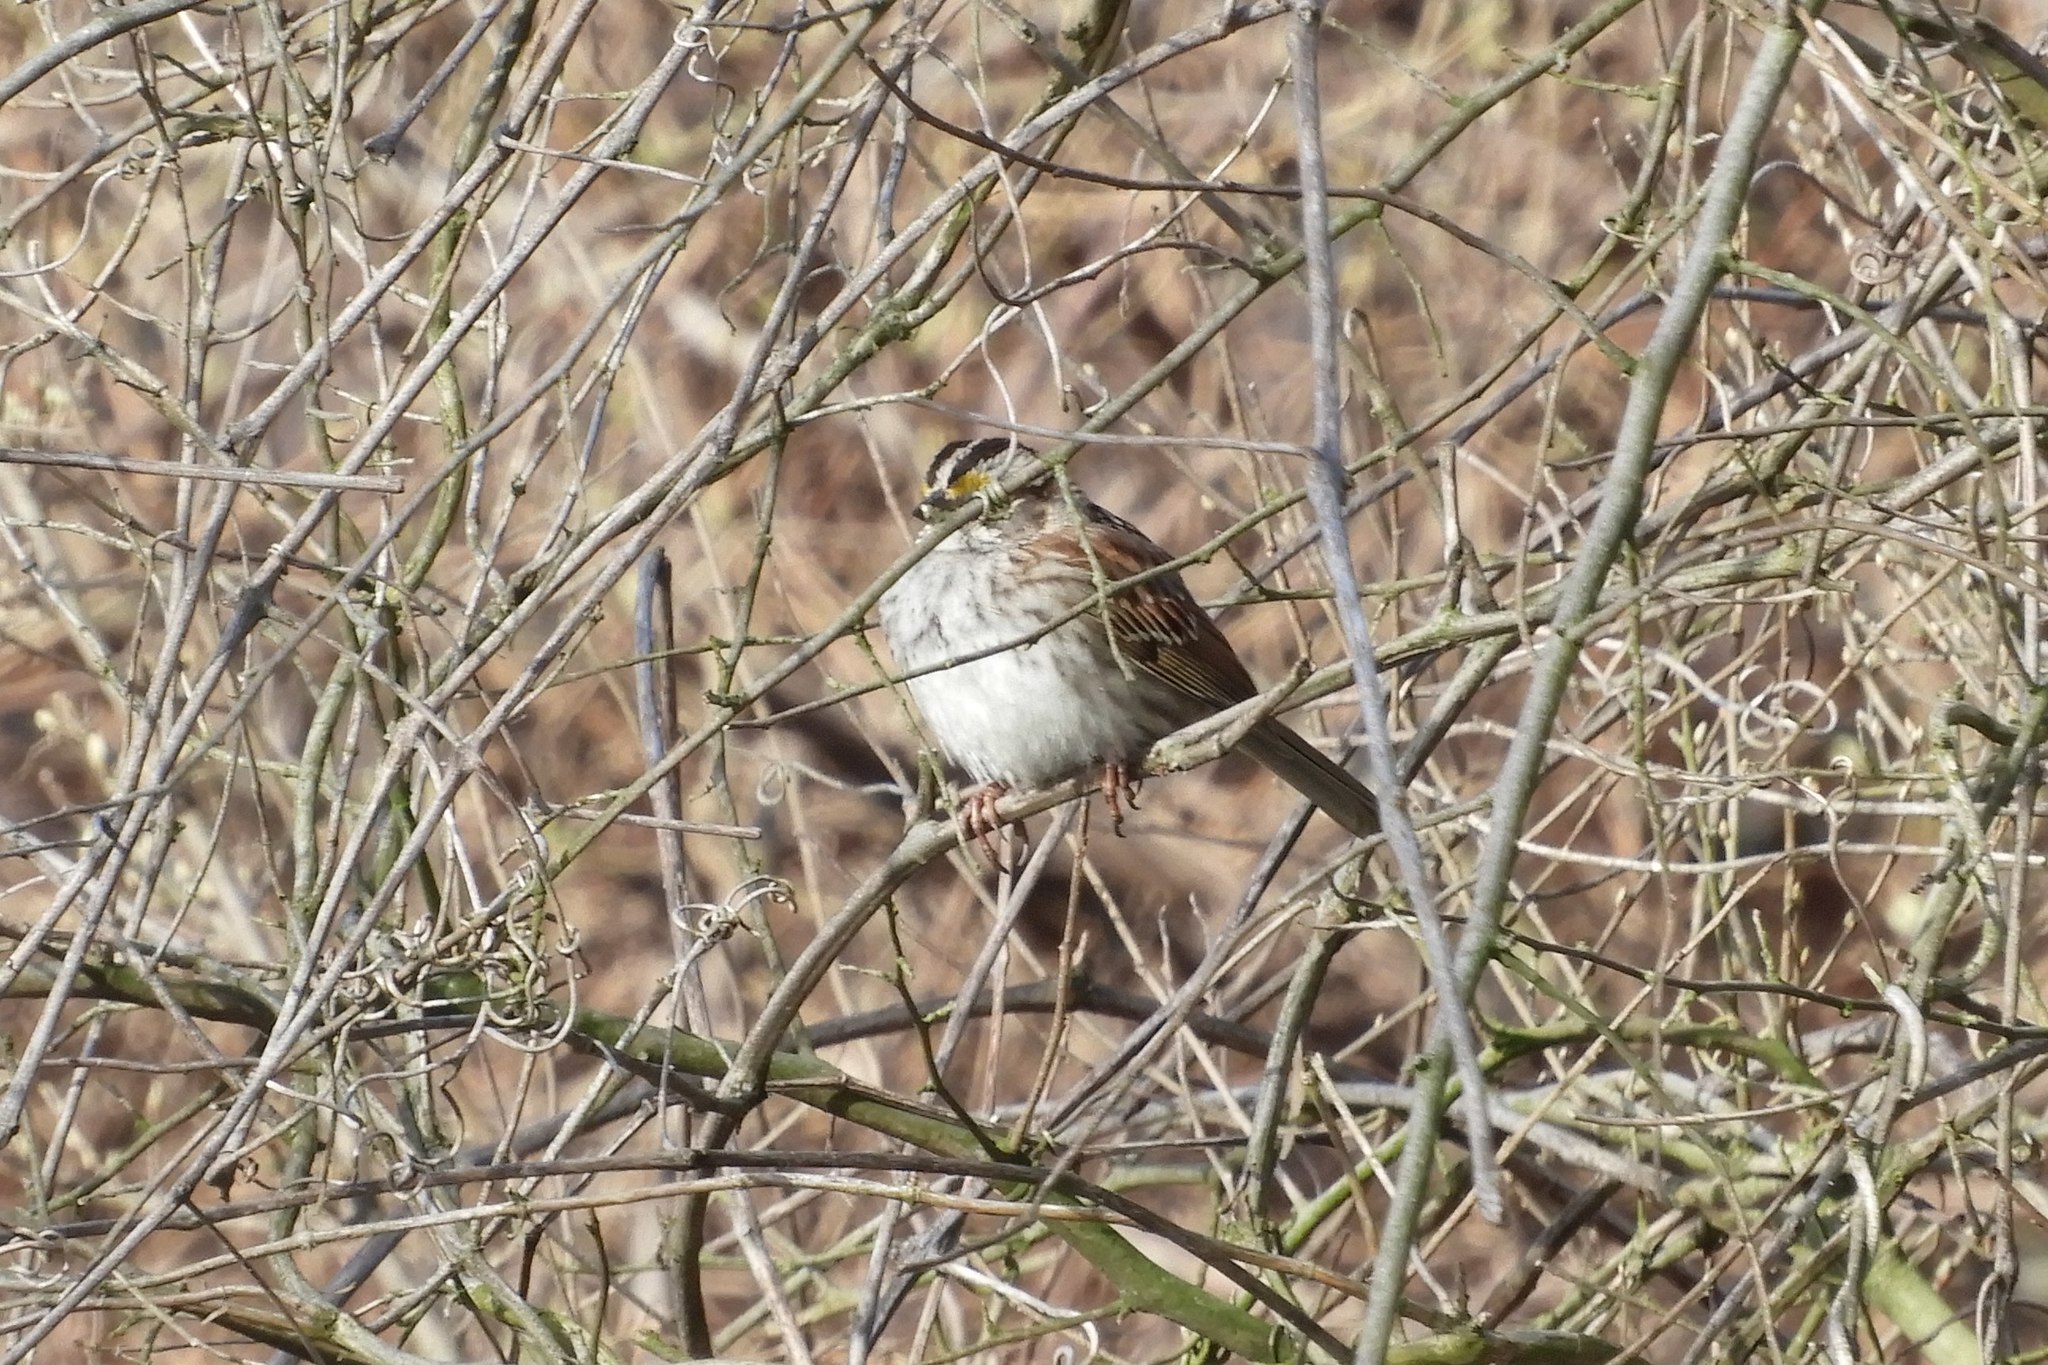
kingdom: Animalia
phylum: Chordata
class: Aves
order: Passeriformes
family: Passerellidae
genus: Zonotrichia
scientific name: Zonotrichia albicollis
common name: White-throated sparrow
